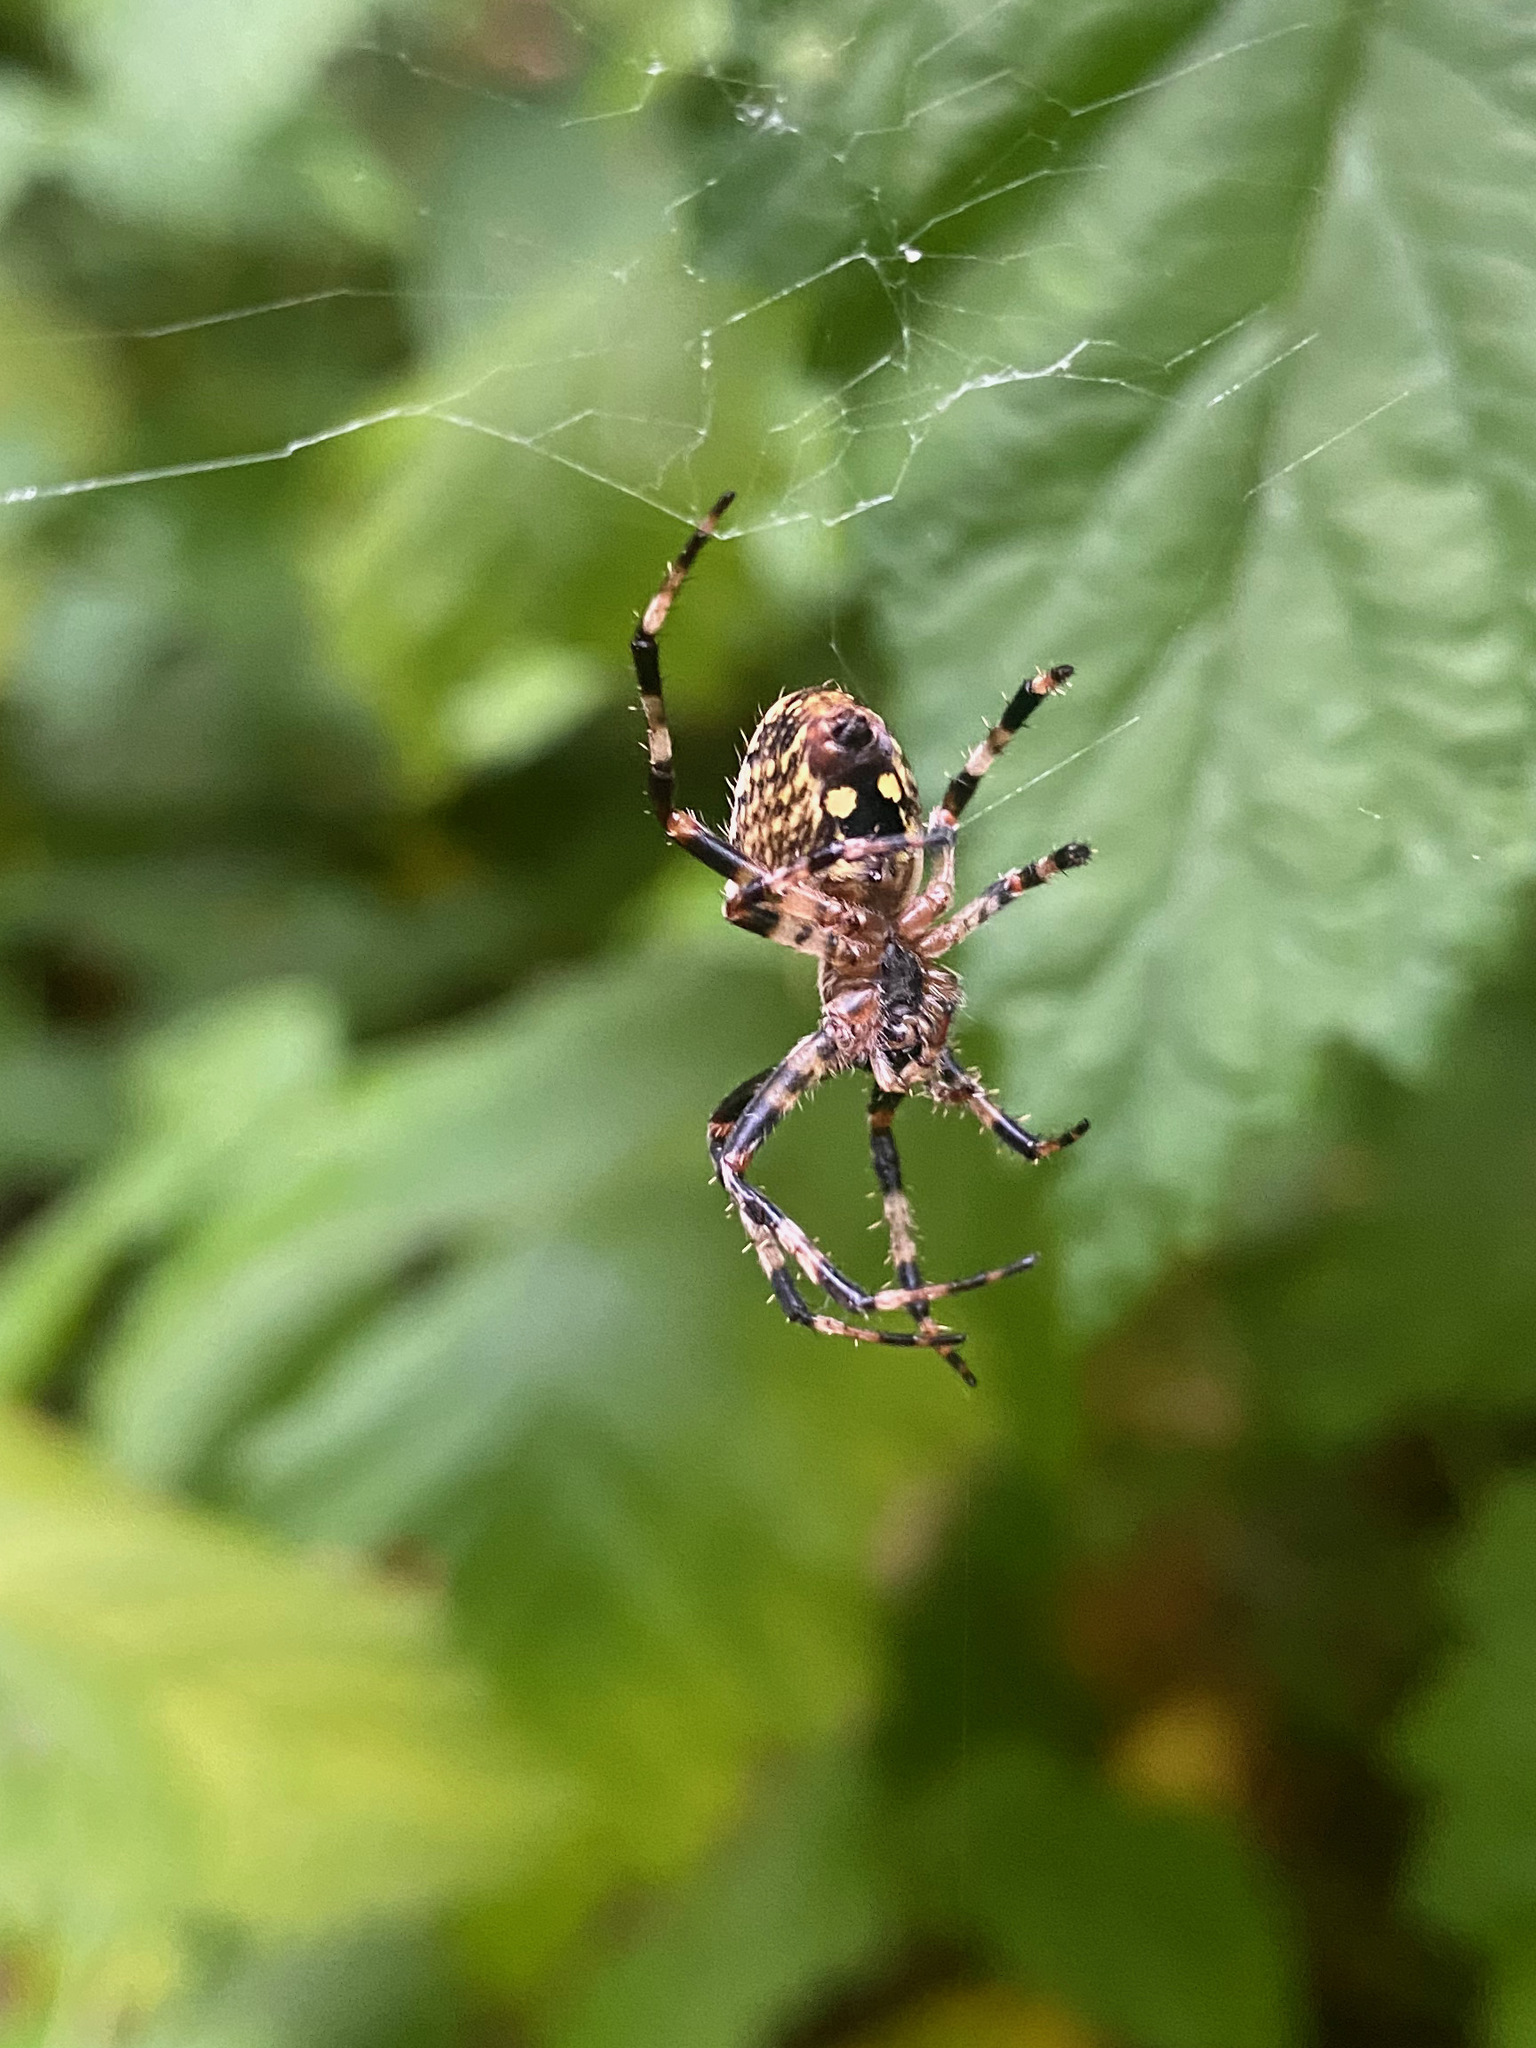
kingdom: Animalia
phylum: Arthropoda
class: Arachnida
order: Araneae
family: Araneidae
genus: Araneus
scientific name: Araneus nordmanni
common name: Nordmann's orbweaver
